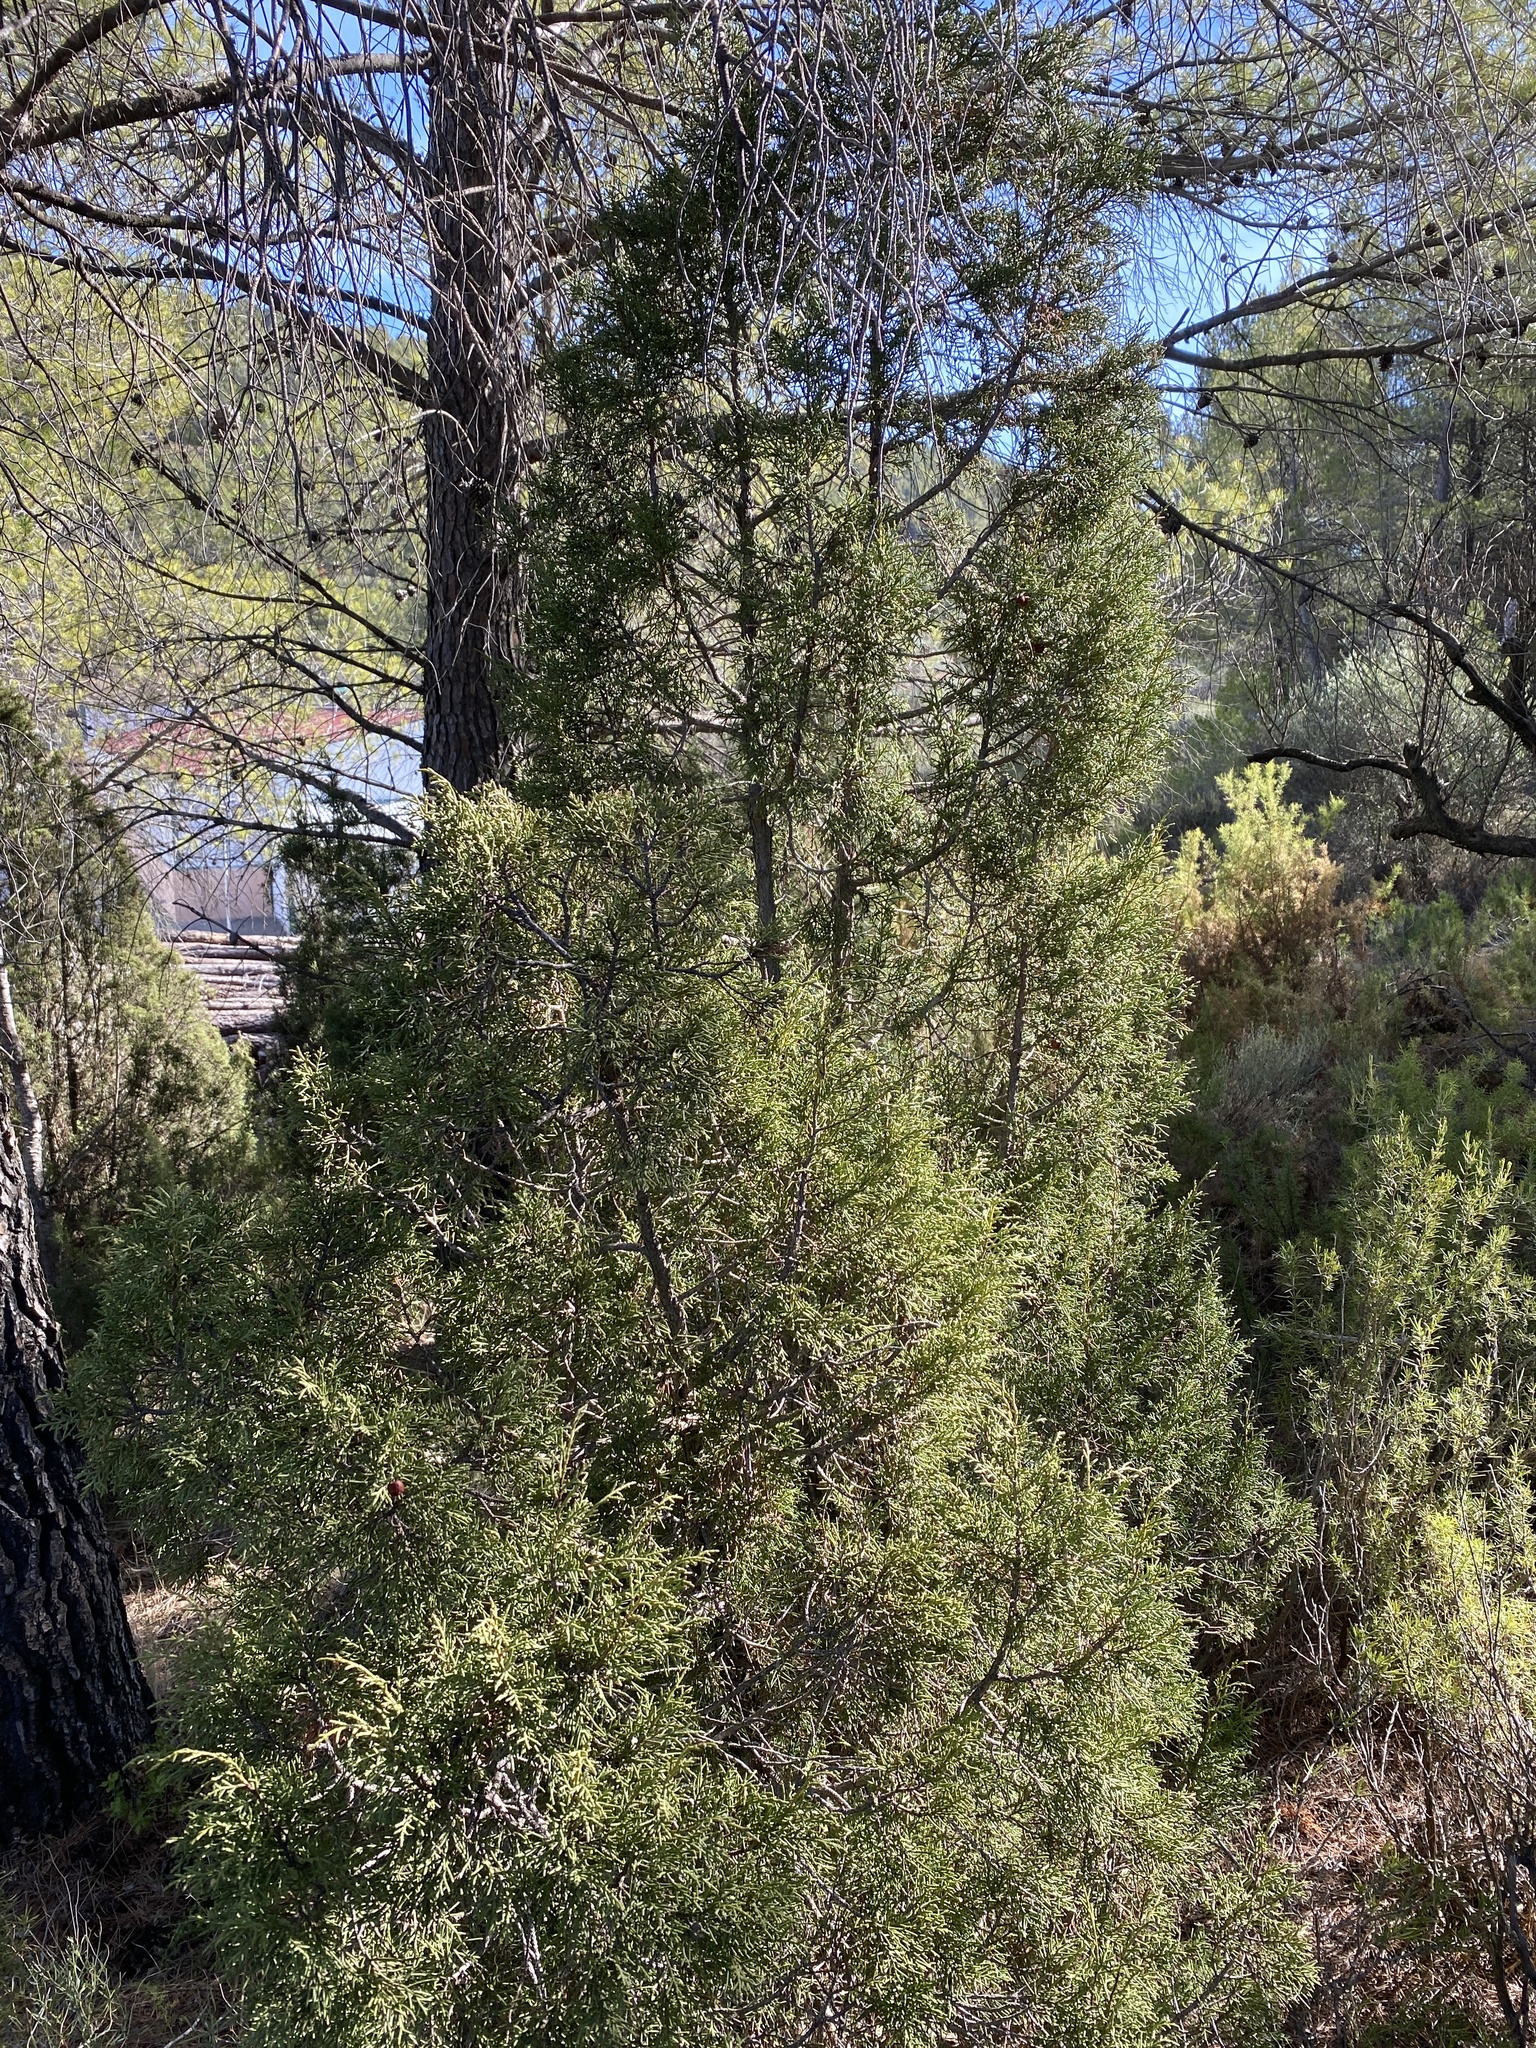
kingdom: Plantae
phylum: Tracheophyta
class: Pinopsida
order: Pinales
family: Cupressaceae
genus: Juniperus
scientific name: Juniperus phoenicea
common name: Phoenician juniper
